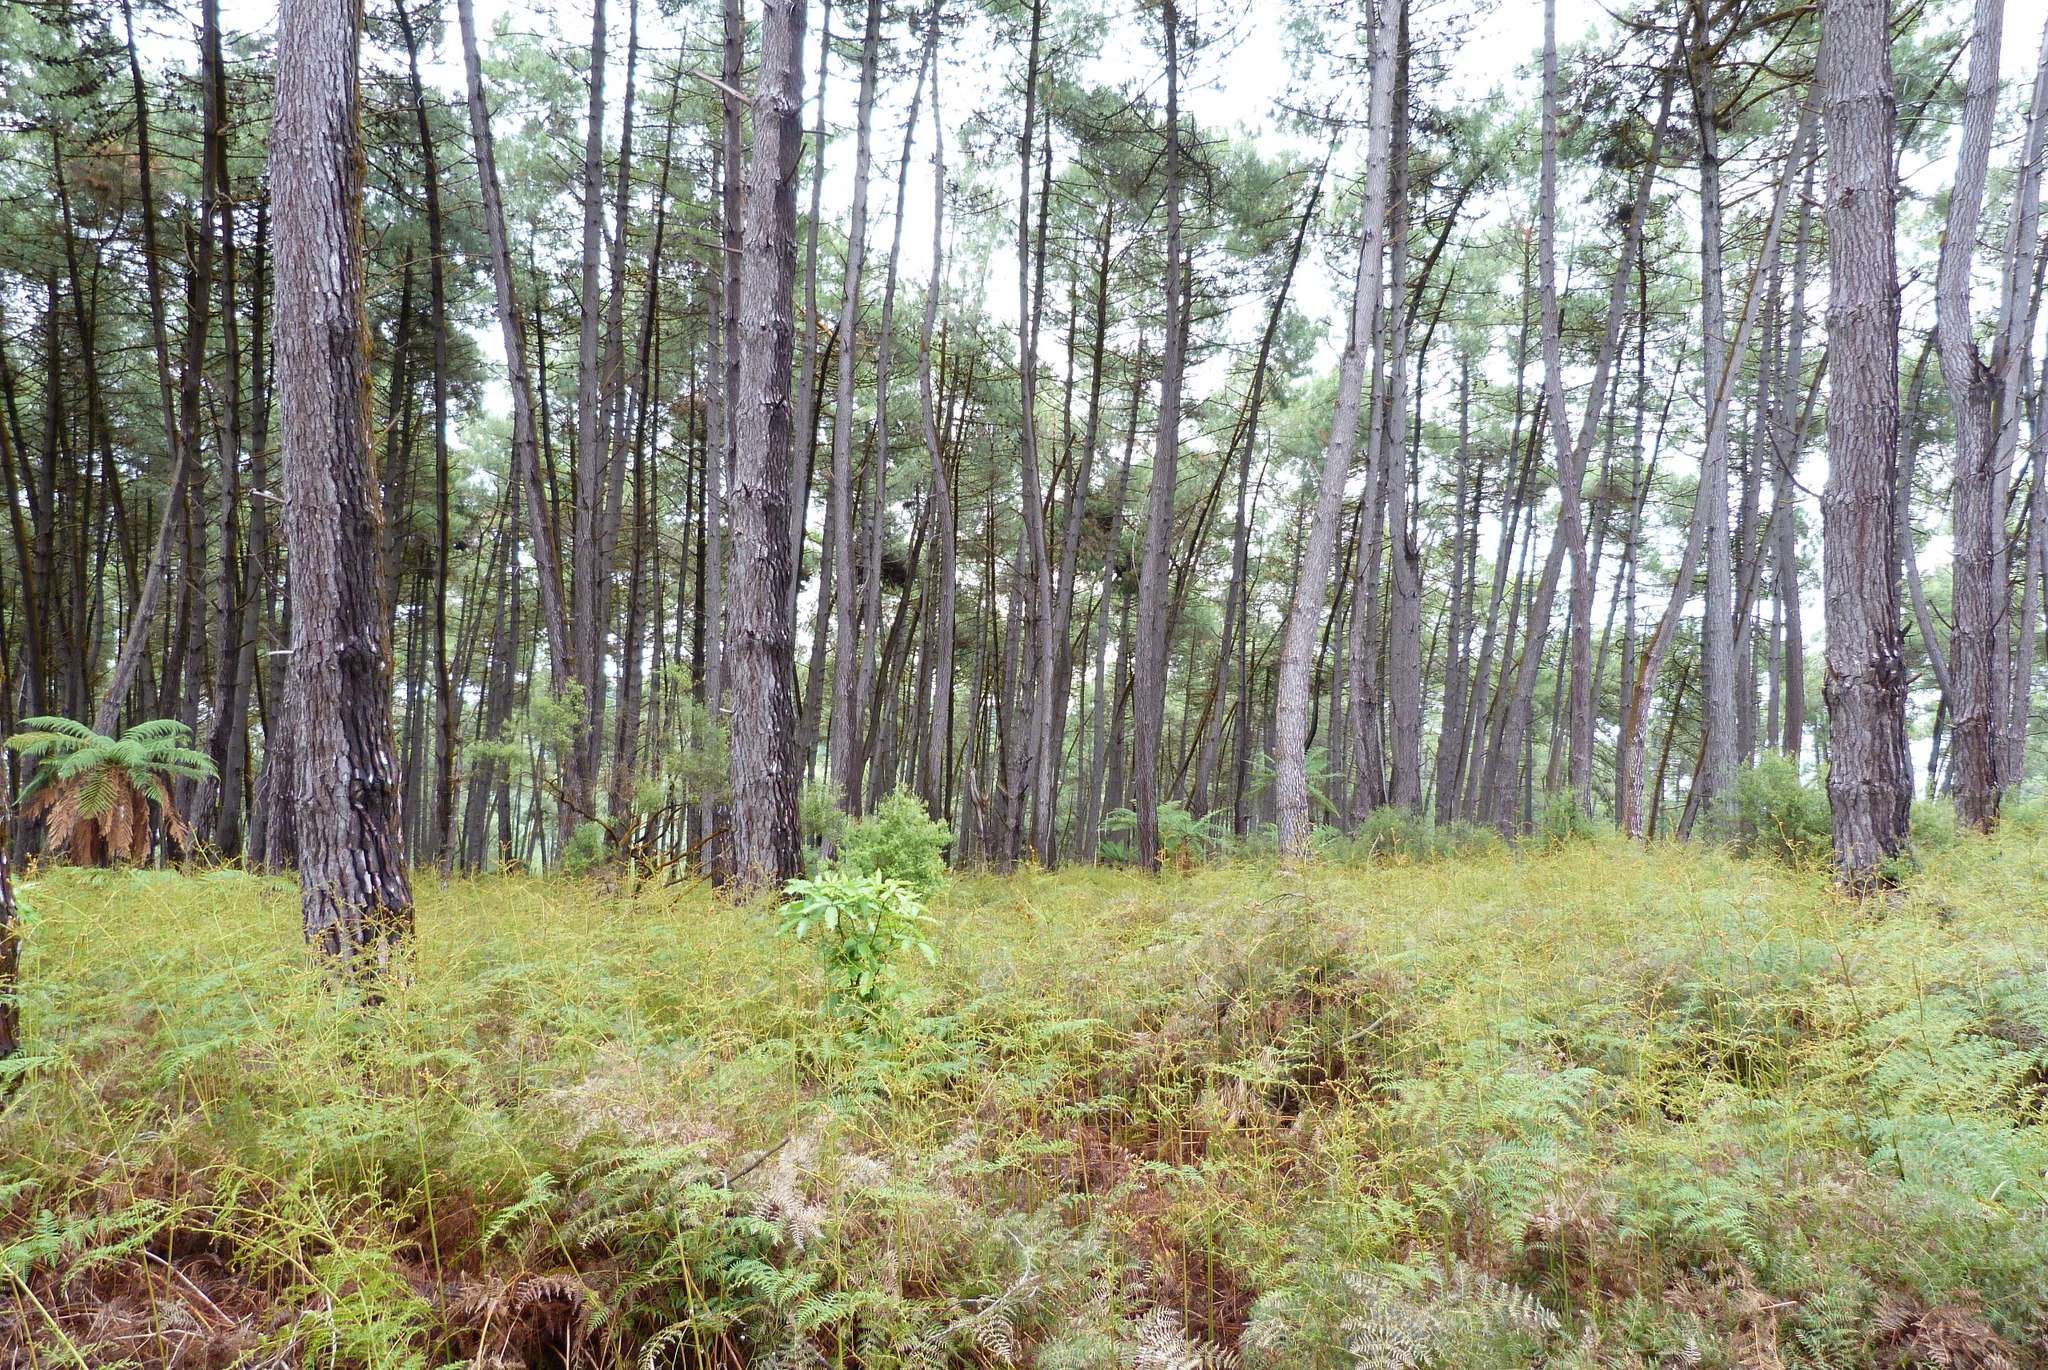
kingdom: Plantae
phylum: Tracheophyta
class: Pinopsida
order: Pinales
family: Pinaceae
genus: Pinus
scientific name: Pinus pinaster
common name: Maritime pine
